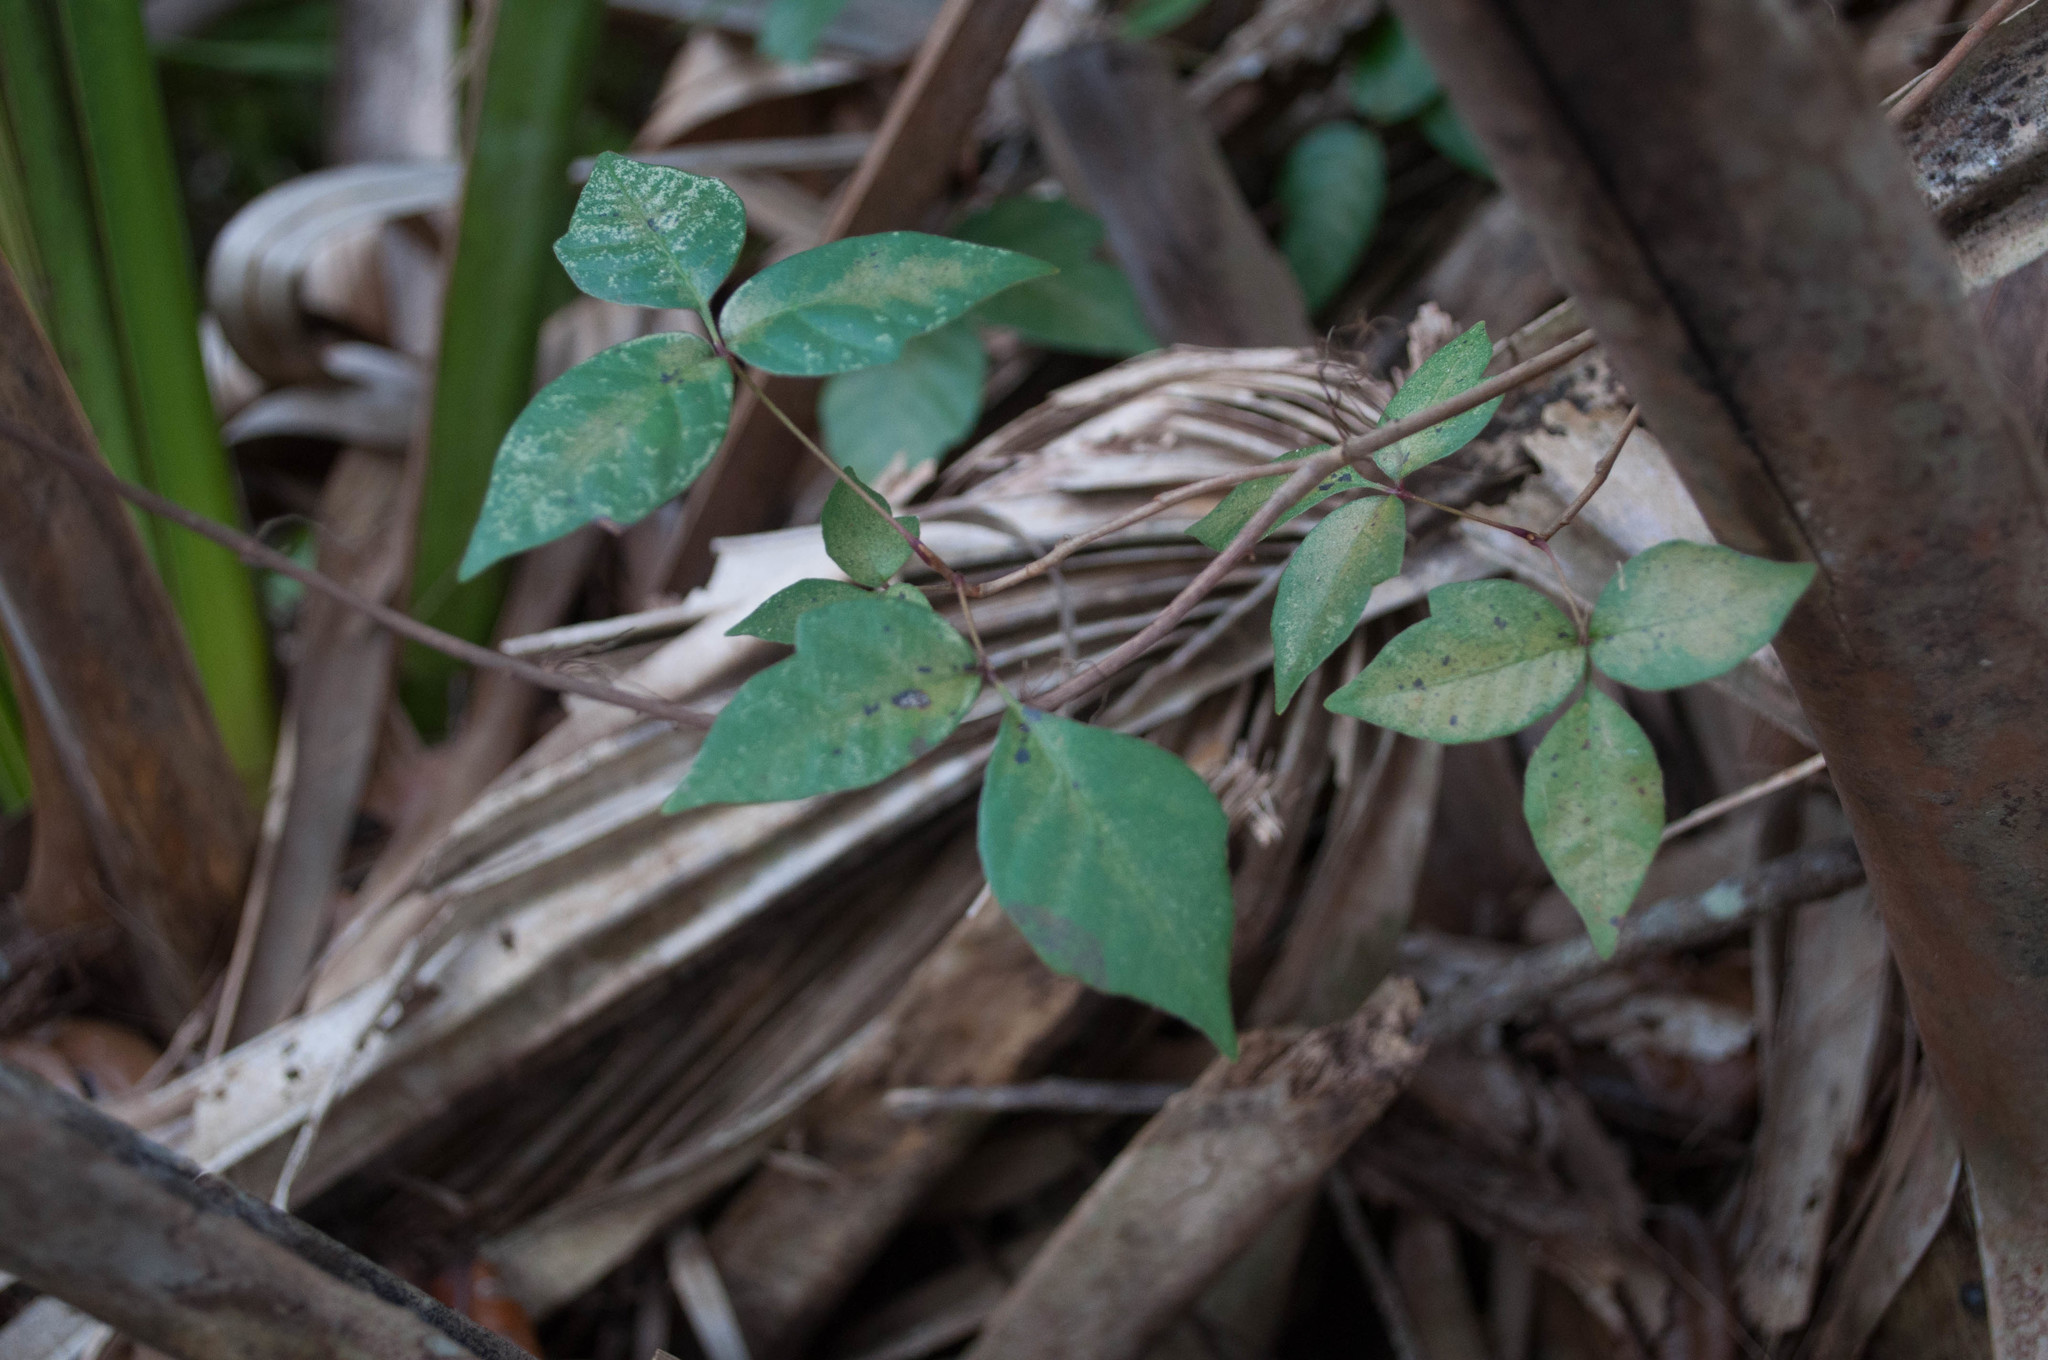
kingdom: Plantae
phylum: Tracheophyta
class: Magnoliopsida
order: Sapindales
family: Anacardiaceae
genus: Toxicodendron
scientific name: Toxicodendron radicans
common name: Poison ivy
